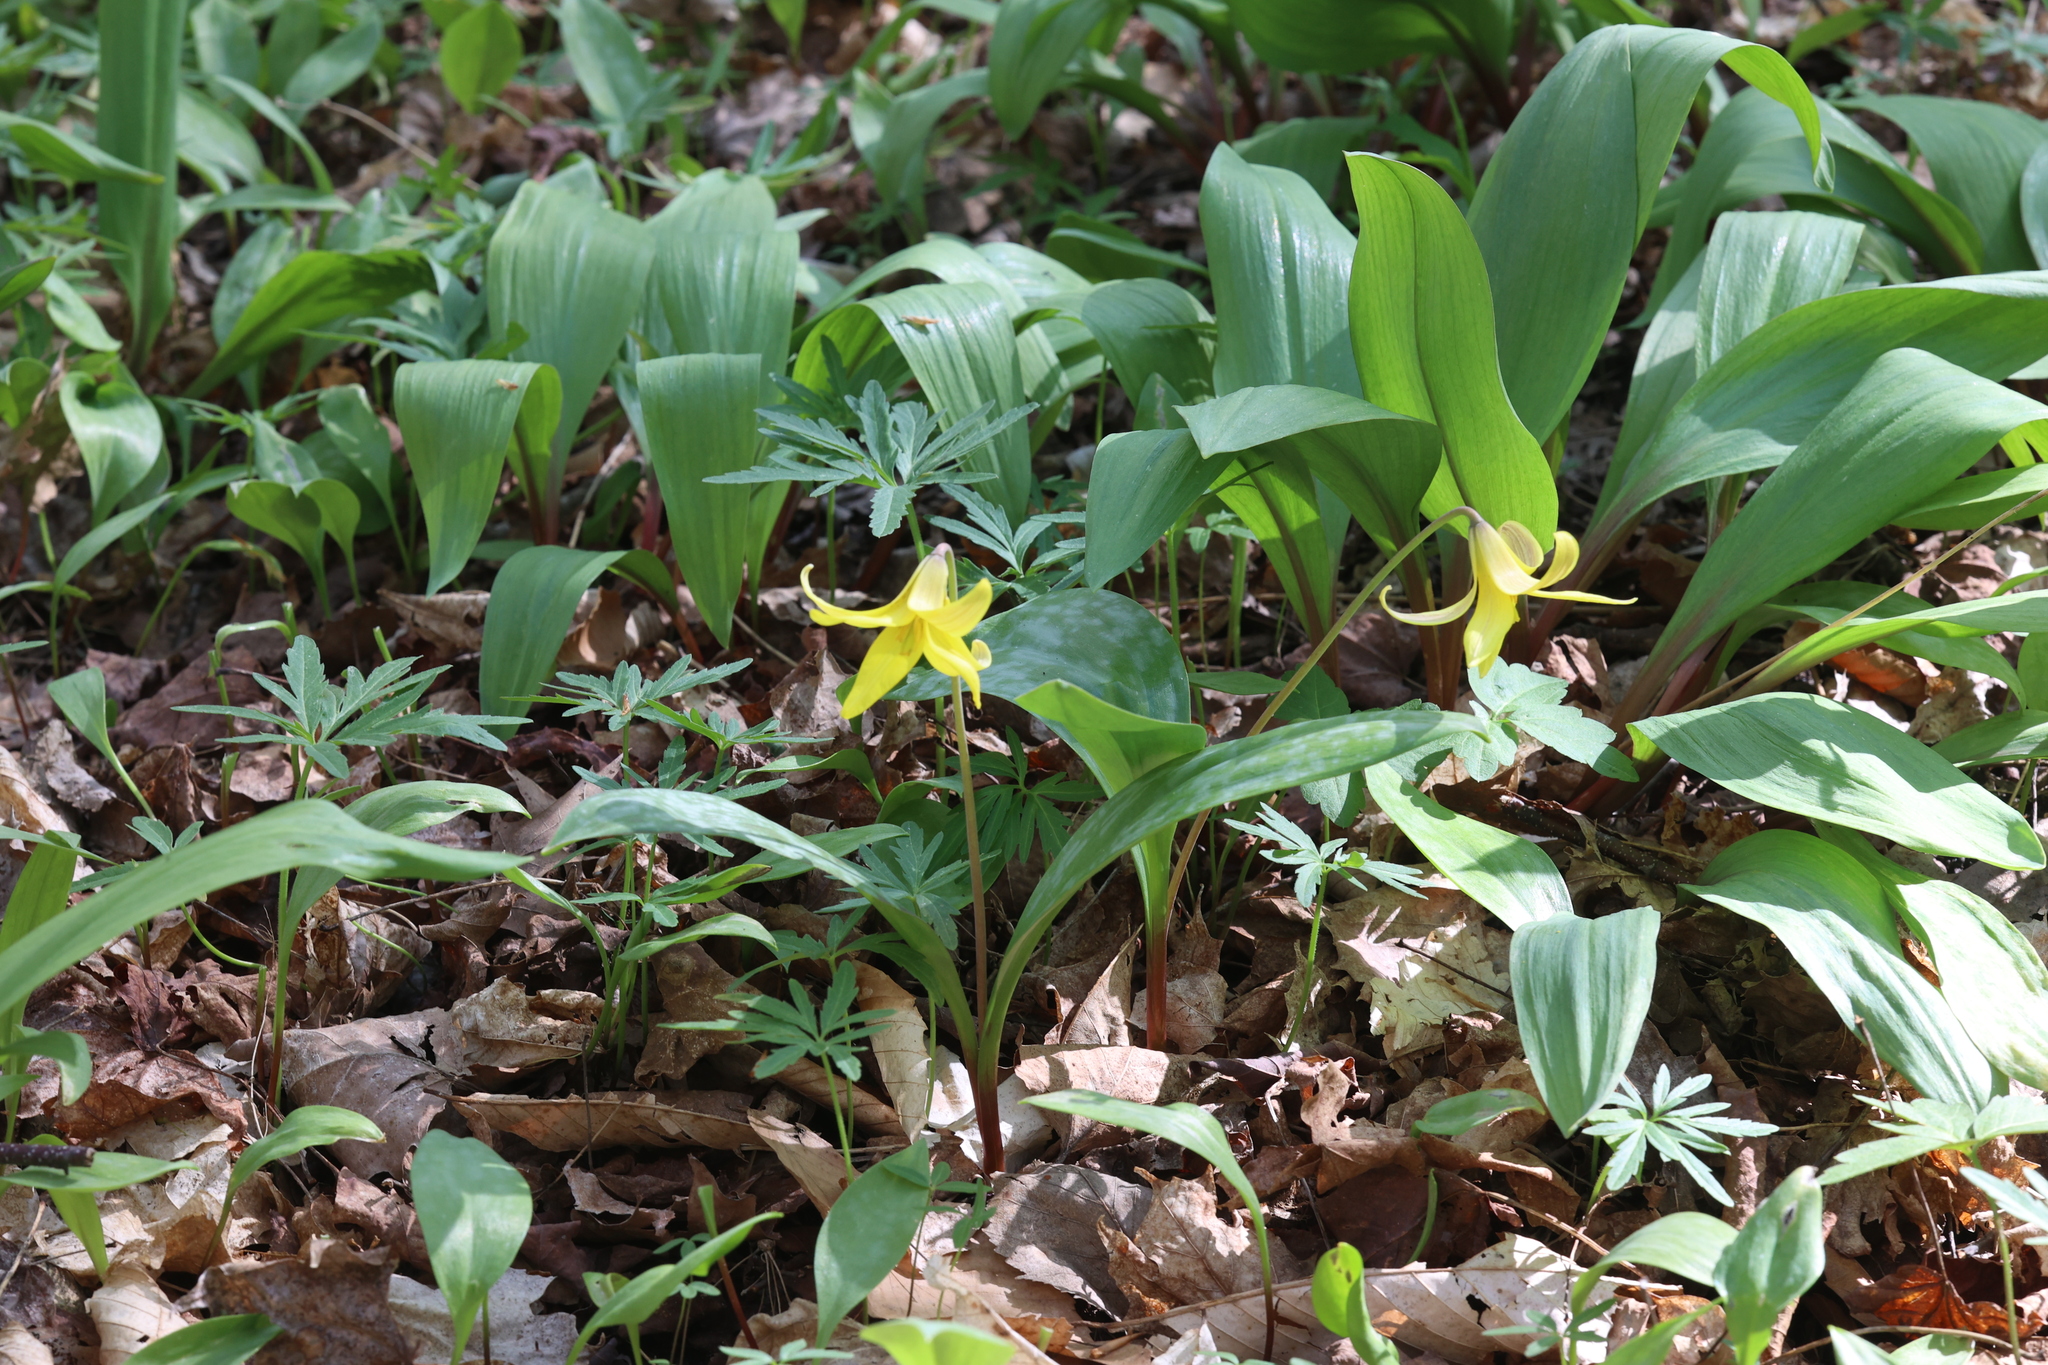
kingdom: Plantae
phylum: Tracheophyta
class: Liliopsida
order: Liliales
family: Liliaceae
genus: Erythronium
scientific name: Erythronium americanum
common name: Yellow adder's-tongue
